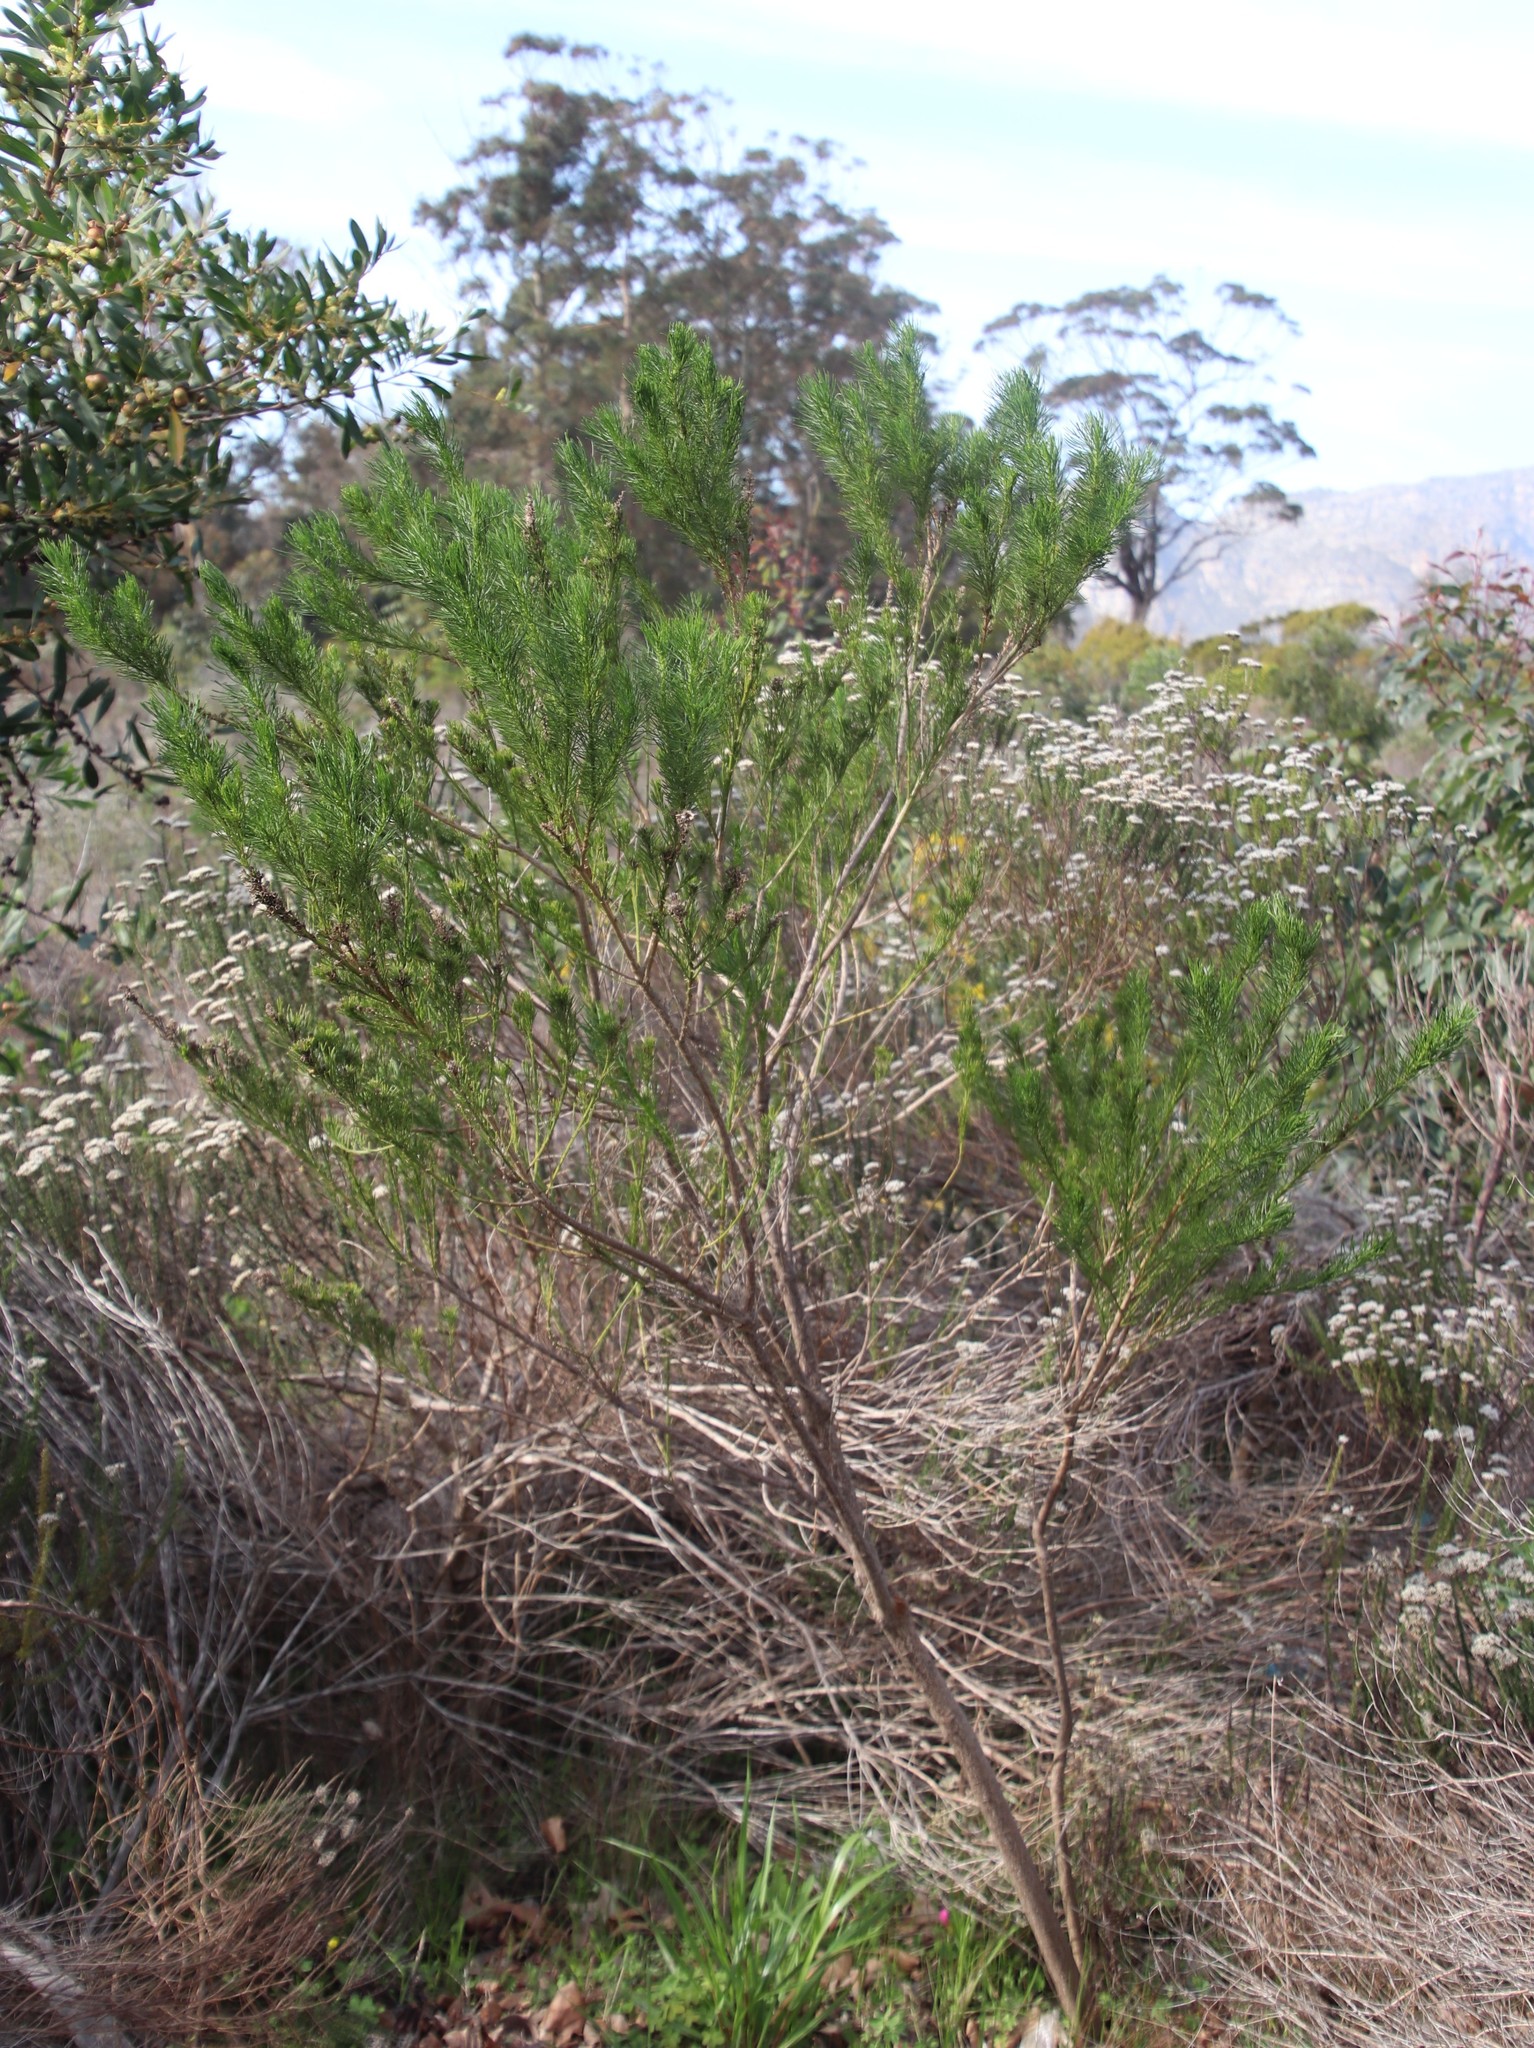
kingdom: Plantae
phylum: Tracheophyta
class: Magnoliopsida
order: Fabales
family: Fabaceae
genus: Psoralea
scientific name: Psoralea pinnata
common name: African scurfpea
